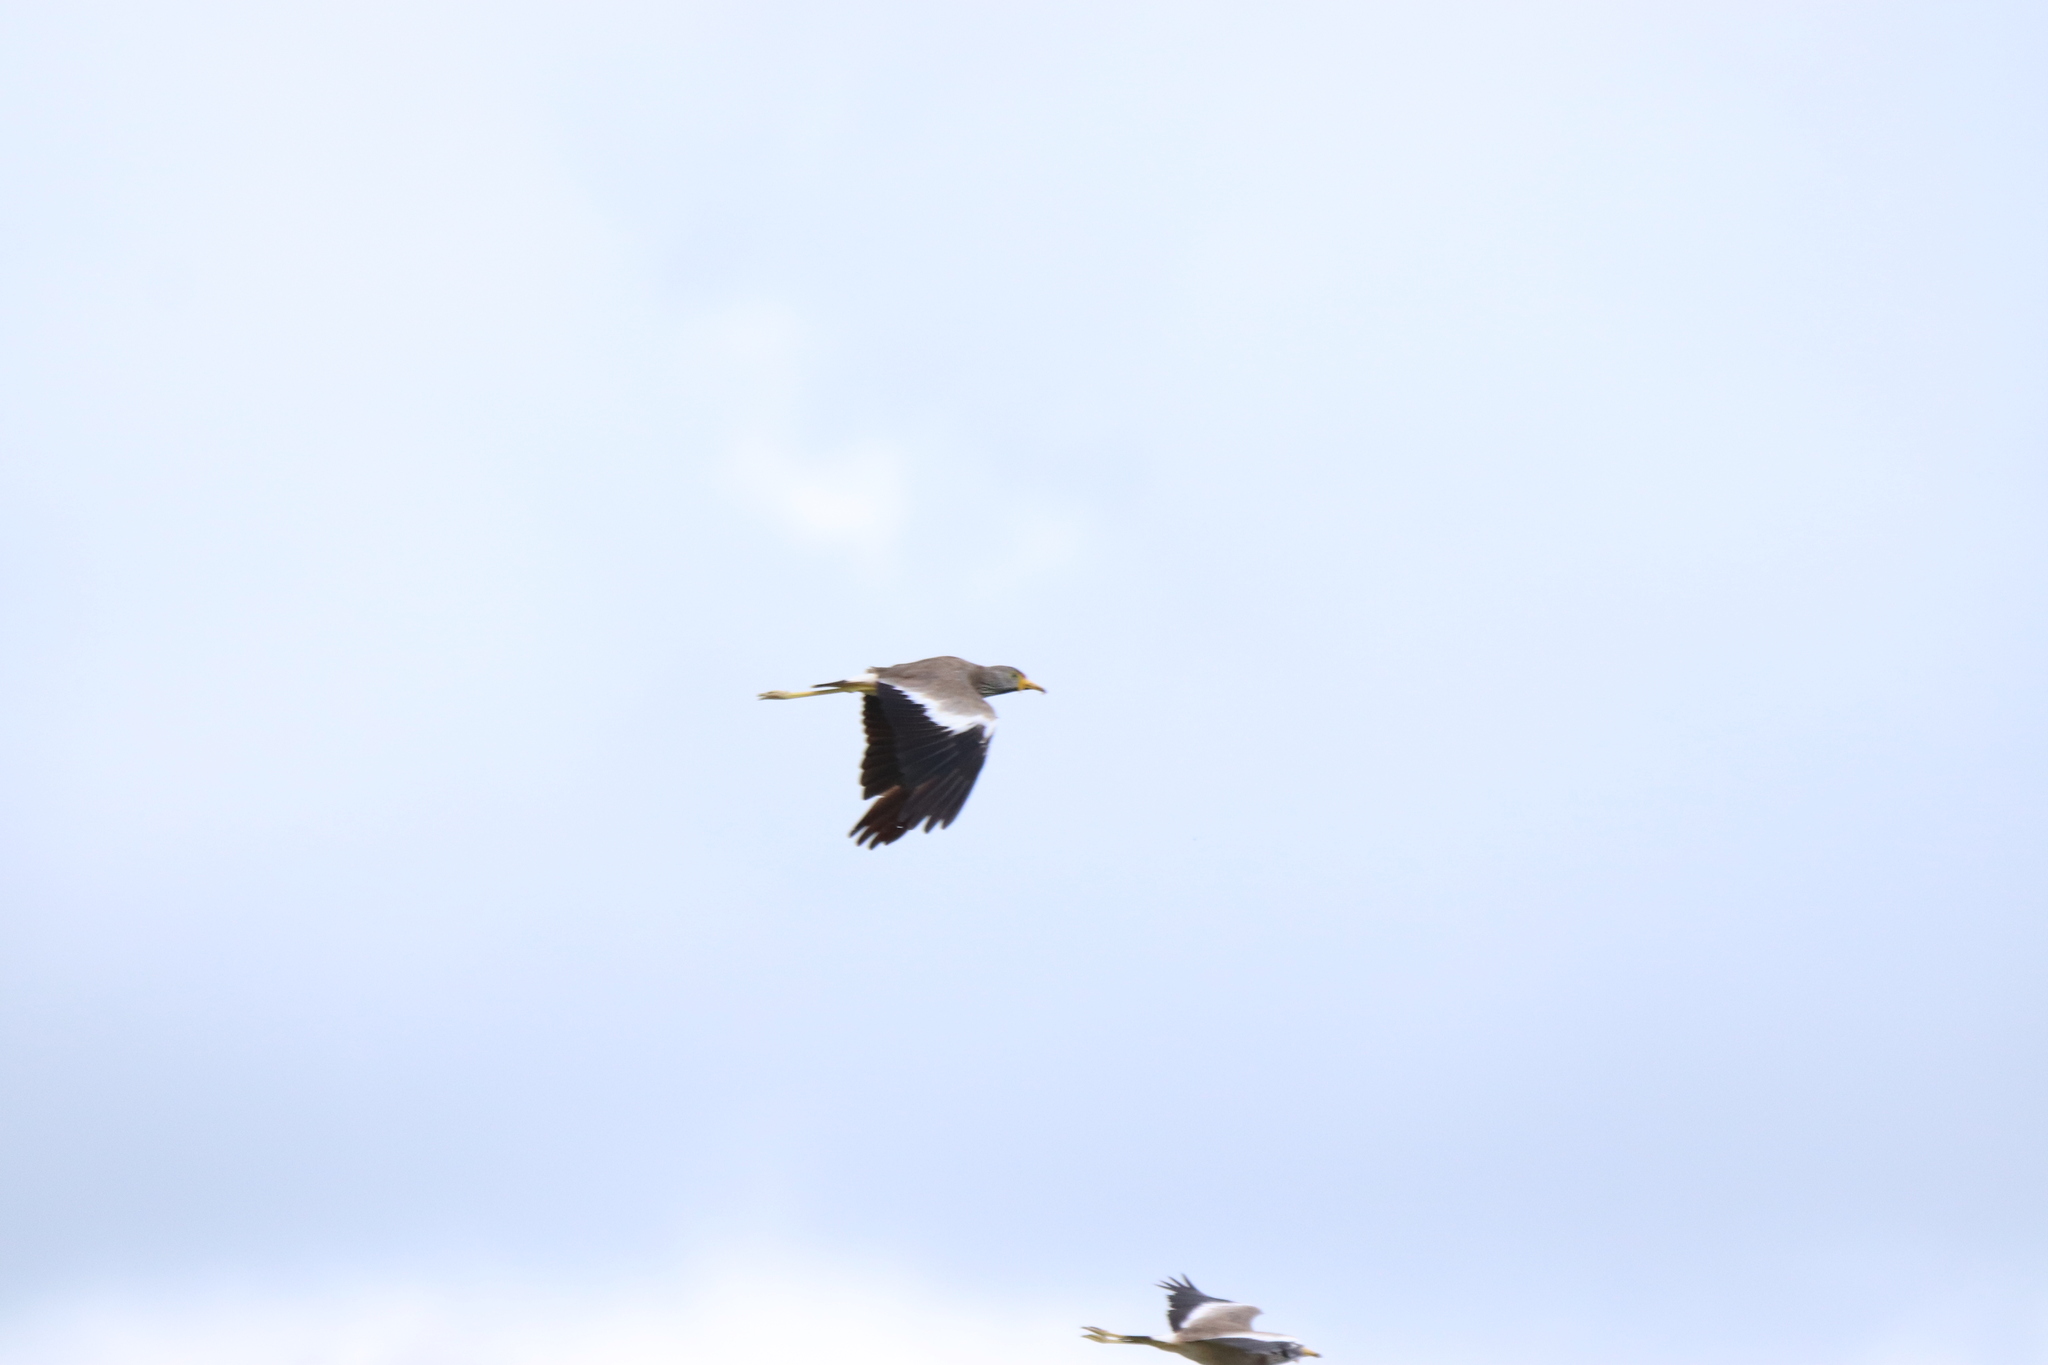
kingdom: Animalia
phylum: Chordata
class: Aves
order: Charadriiformes
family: Charadriidae
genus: Vanellus
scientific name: Vanellus senegallus
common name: African wattled lapwing
